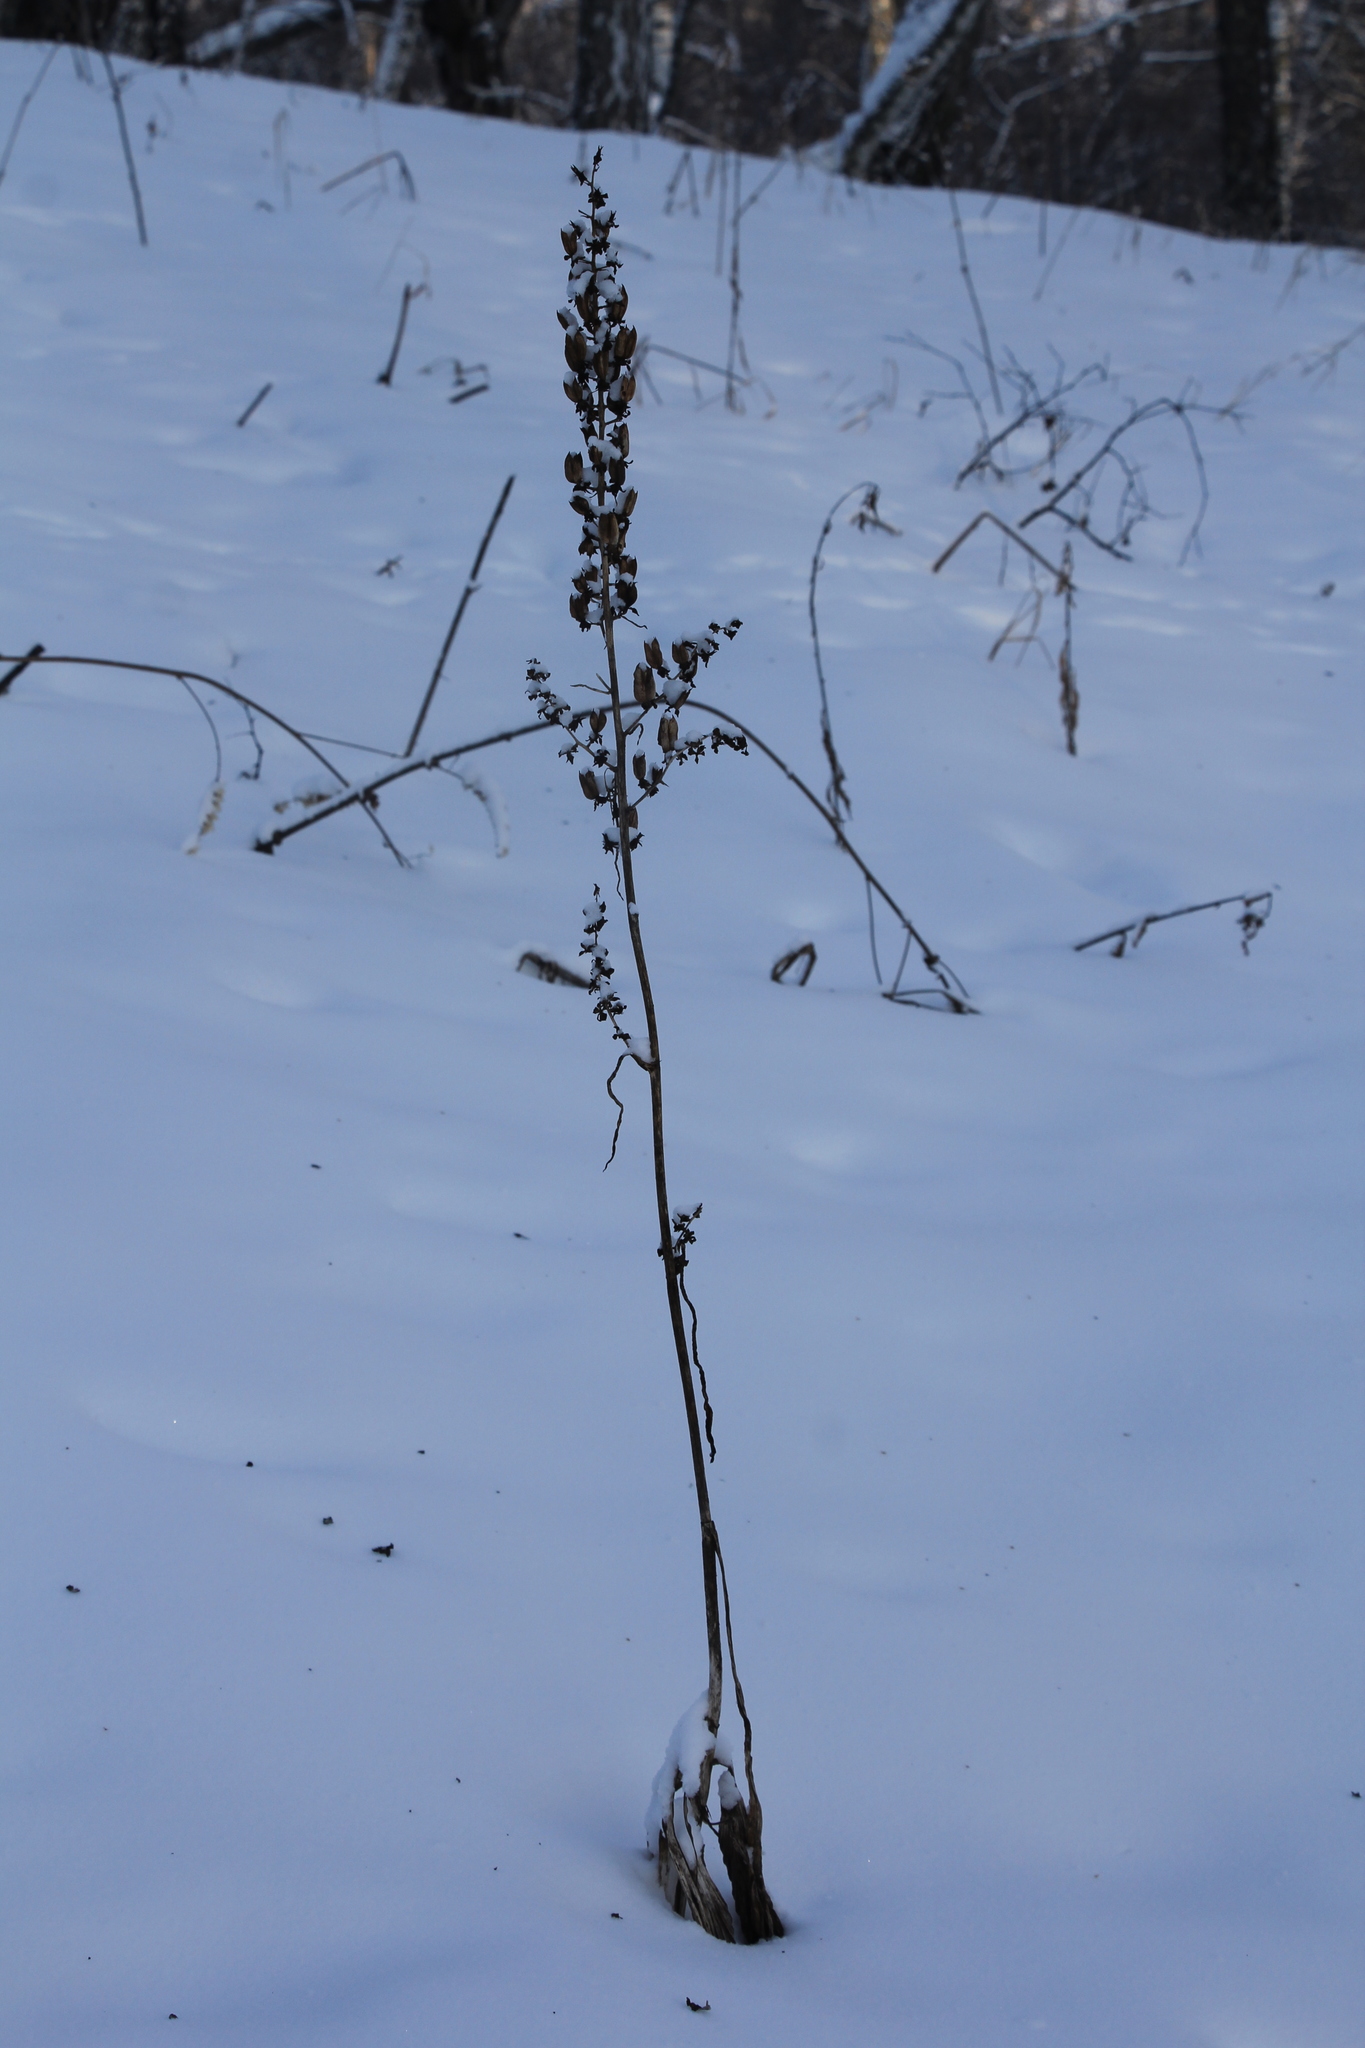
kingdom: Plantae
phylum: Tracheophyta
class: Magnoliopsida
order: Ranunculales
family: Ranunculaceae
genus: Aconitum
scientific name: Aconitum septentrionale
